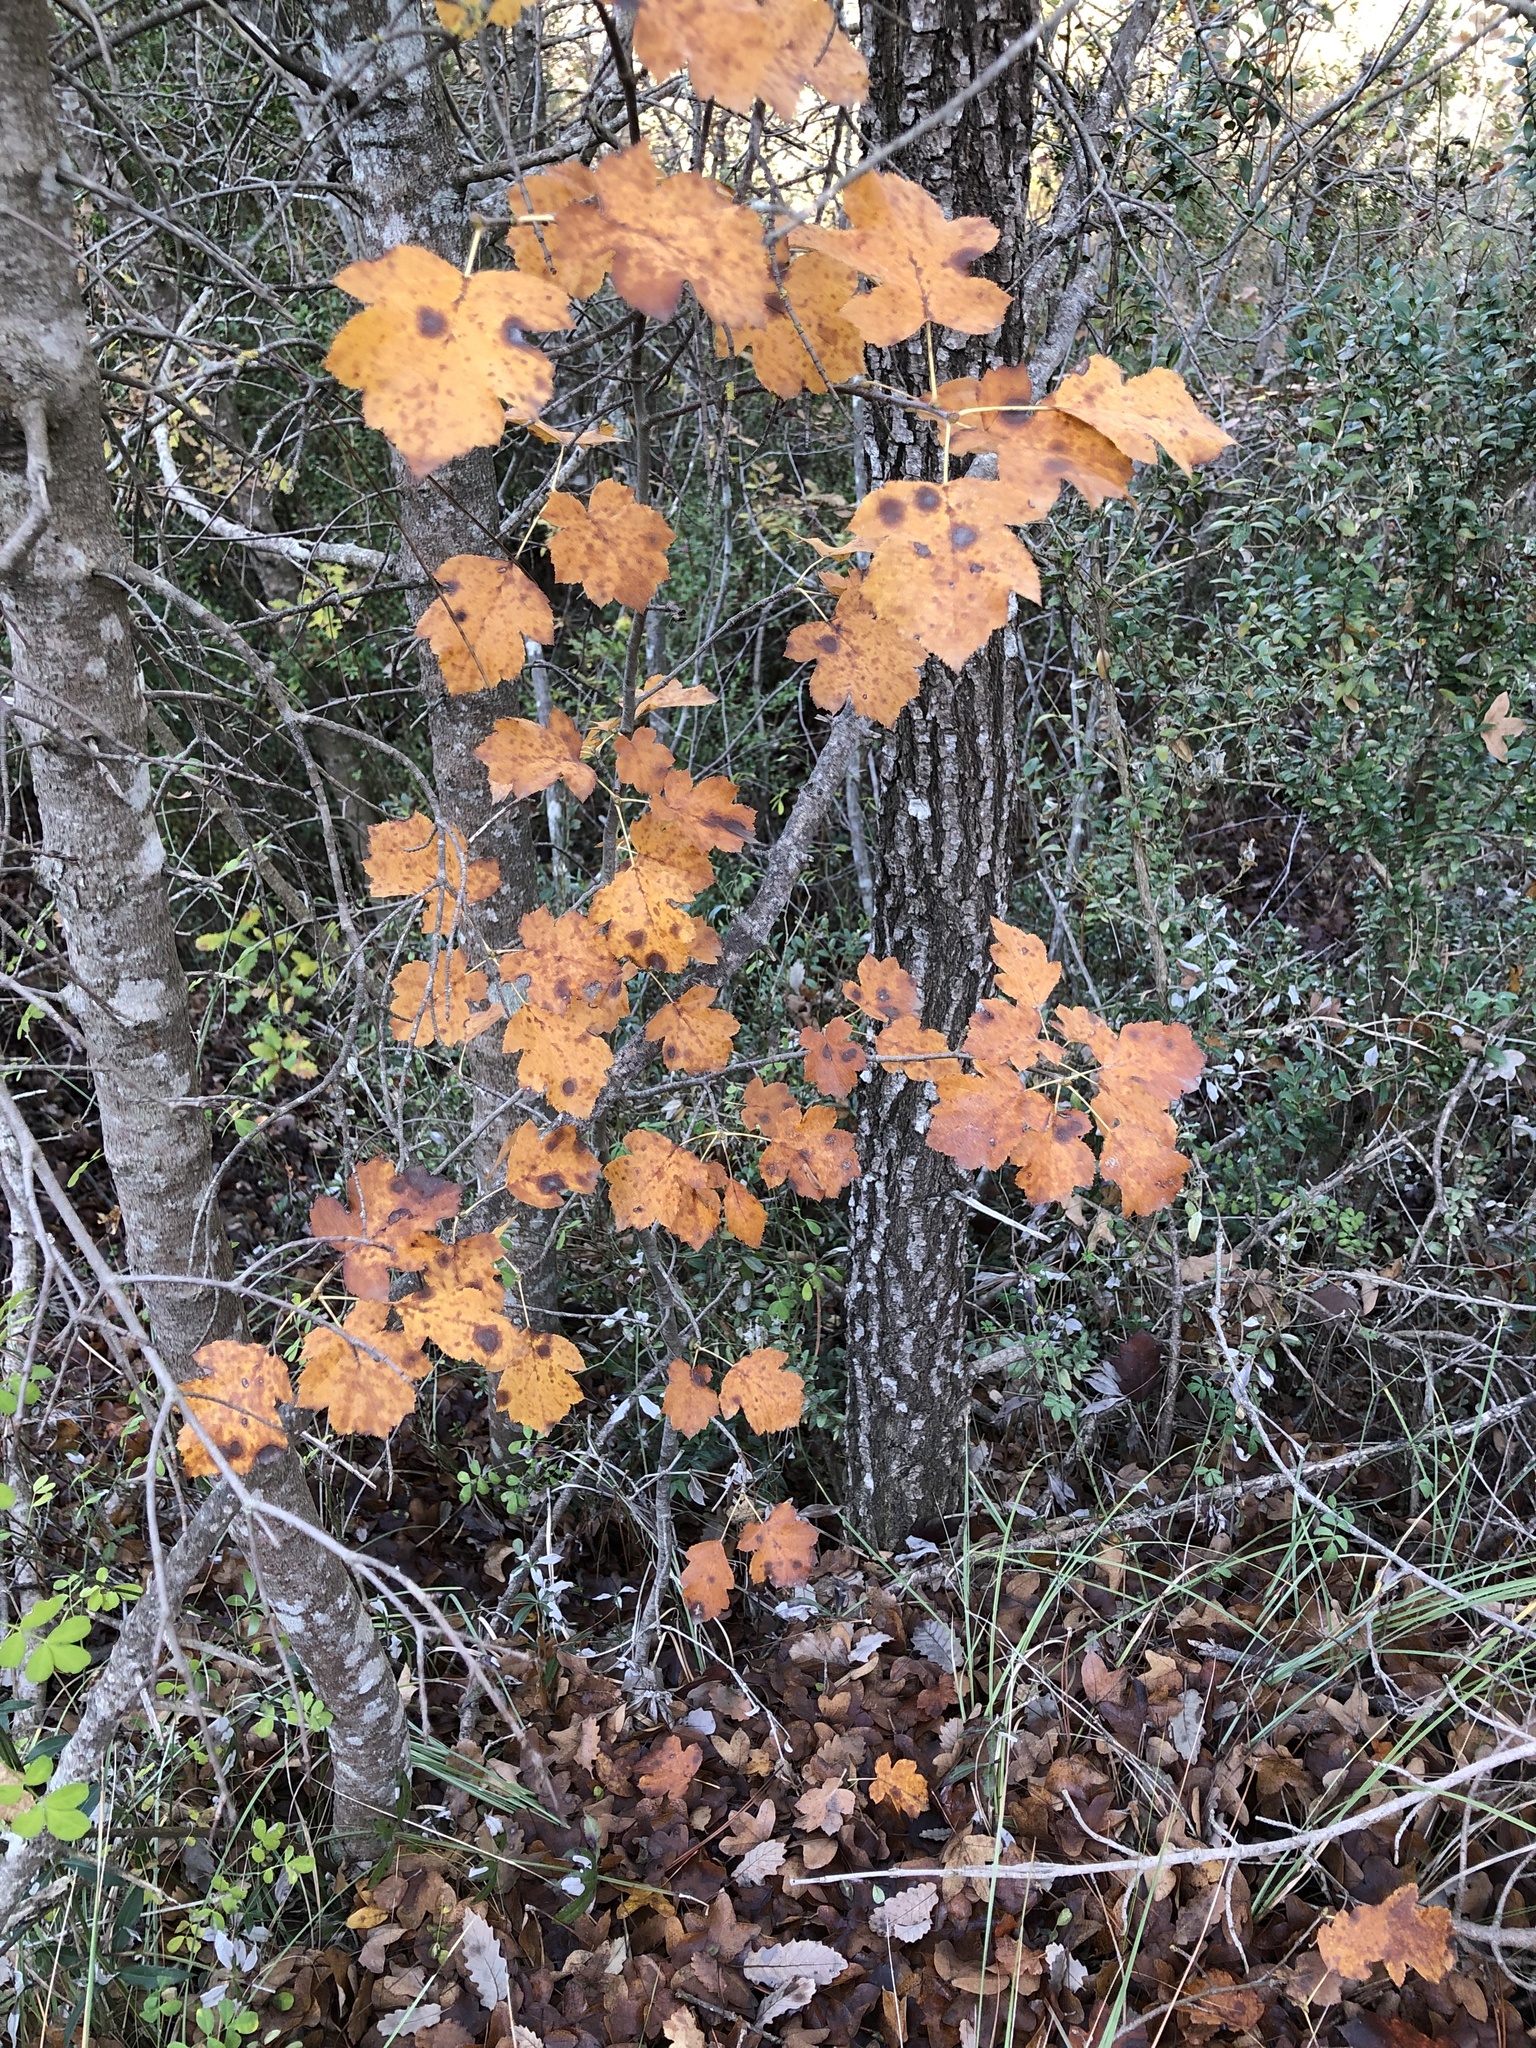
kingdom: Plantae
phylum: Tracheophyta
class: Magnoliopsida
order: Rosales
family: Rosaceae
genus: Torminalis
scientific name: Torminalis glaberrima
